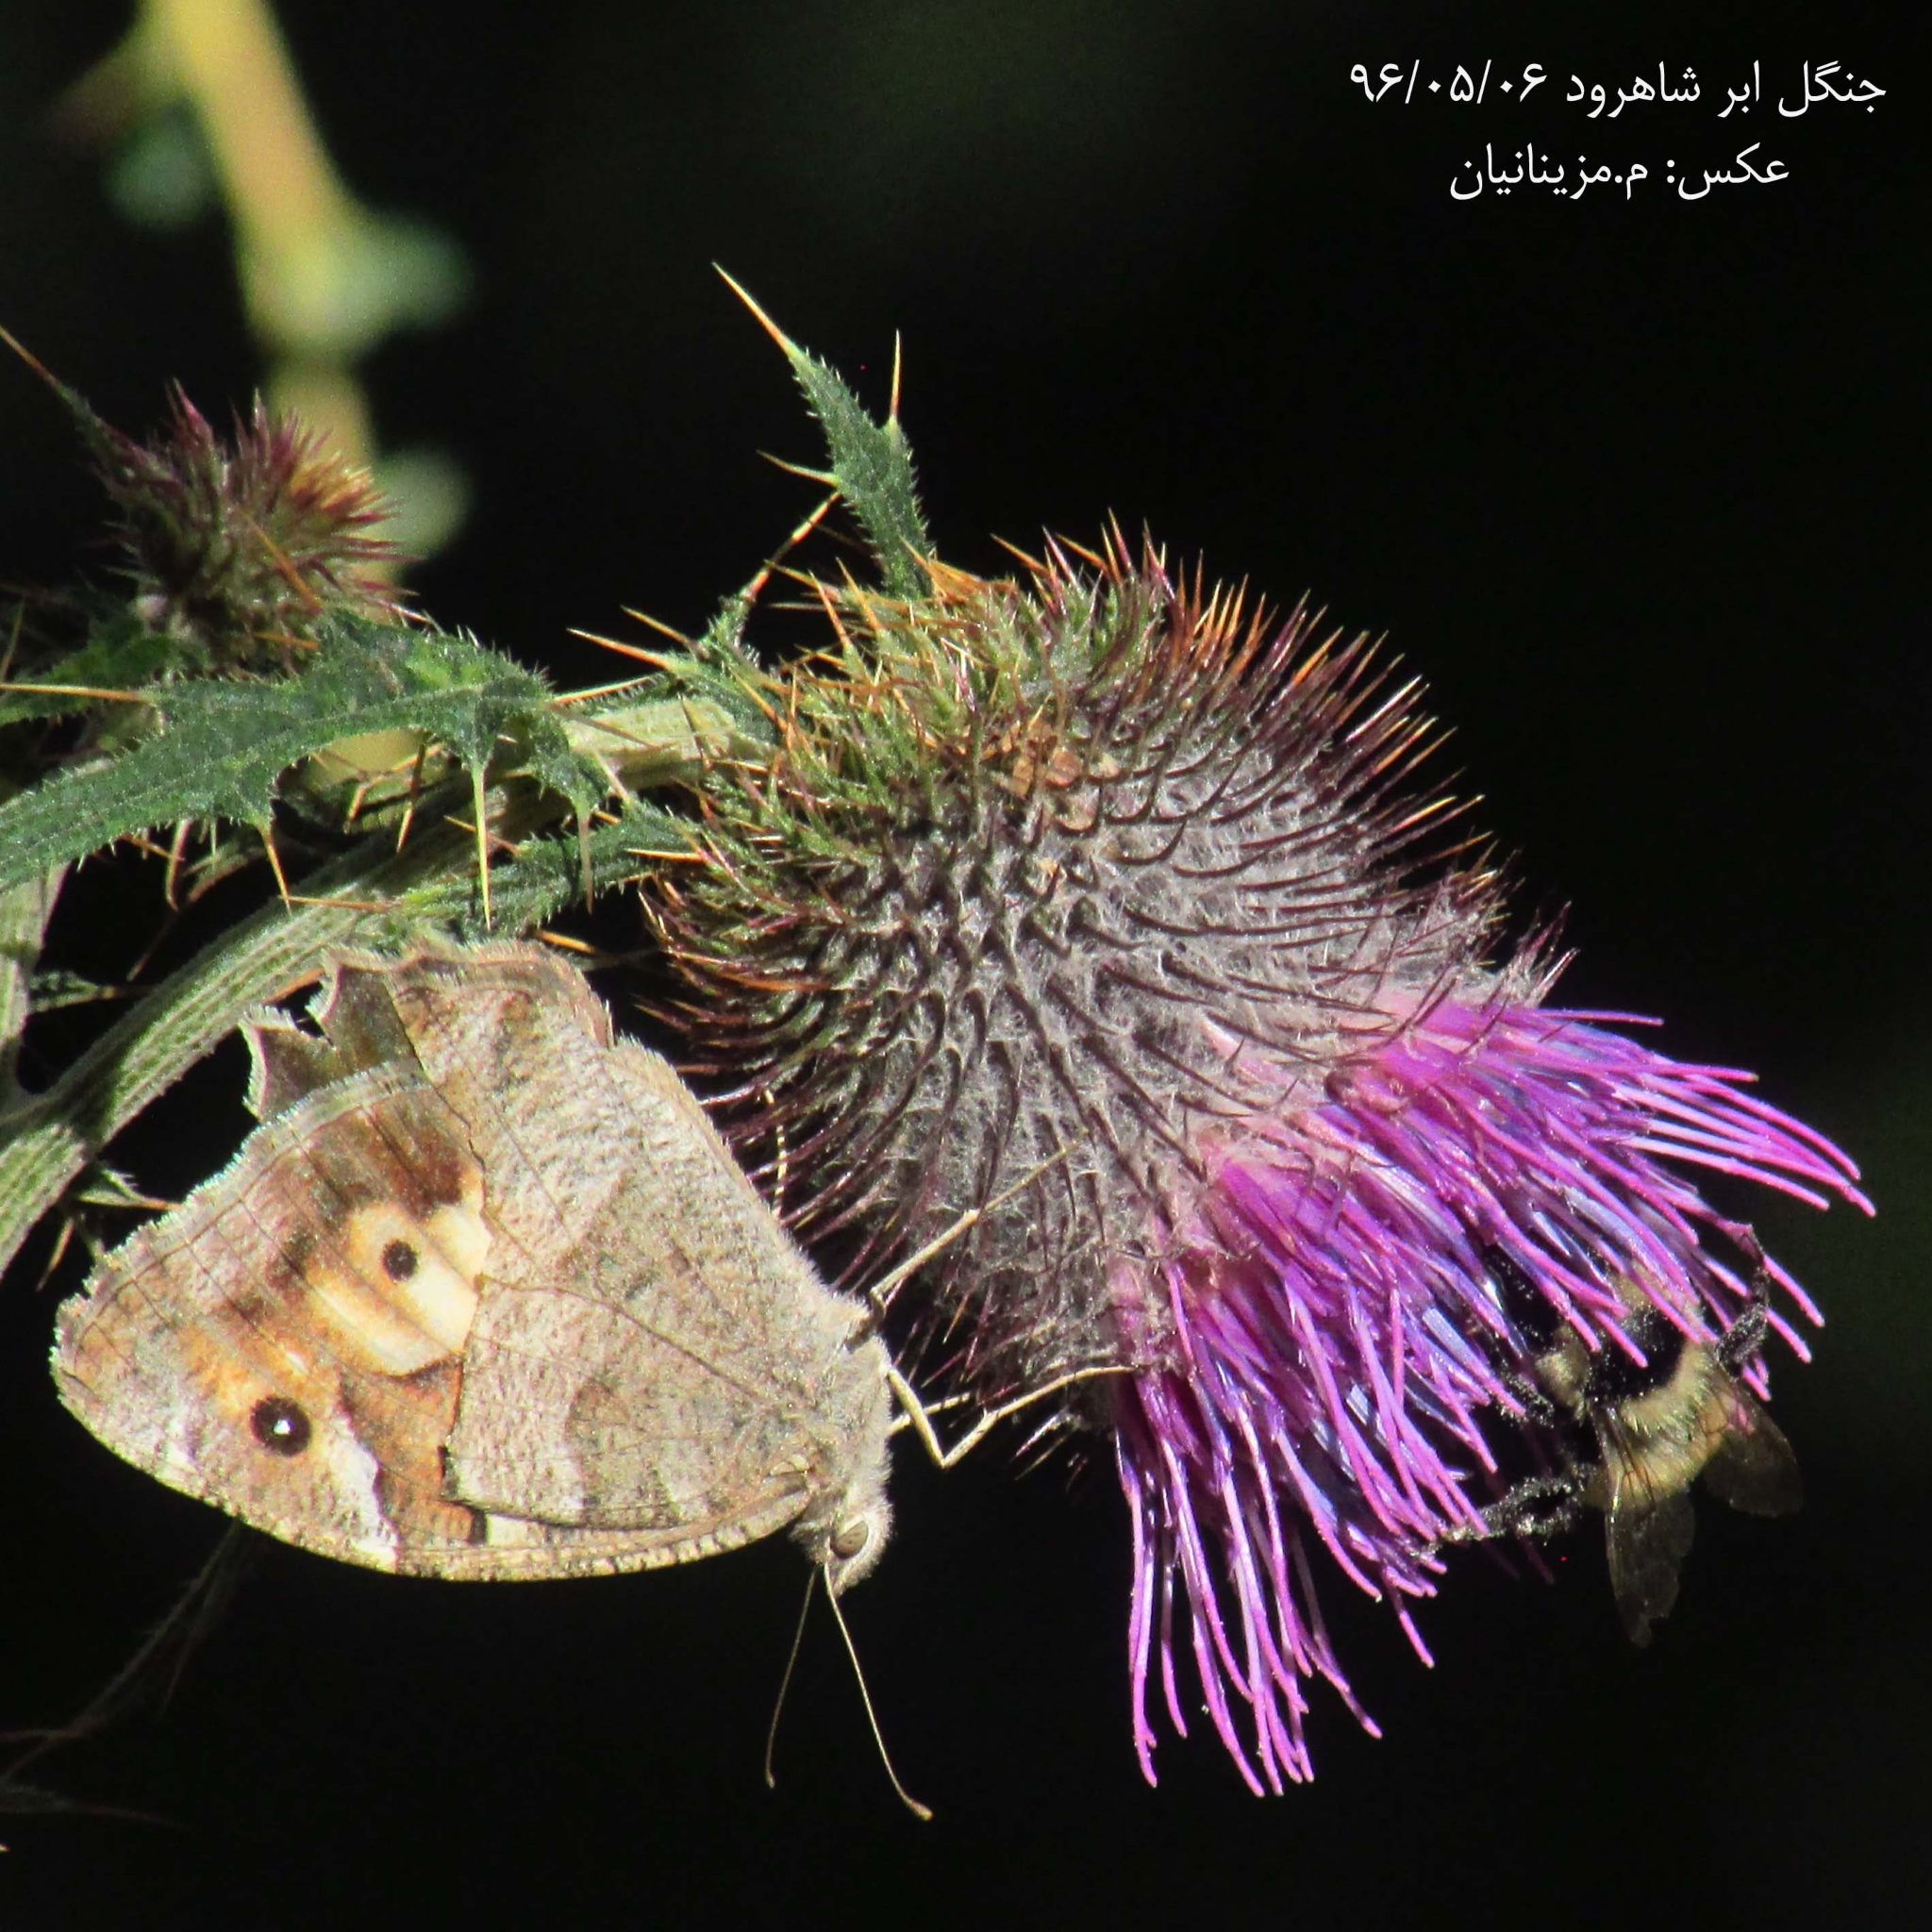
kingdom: Animalia
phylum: Arthropoda
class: Insecta
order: Lepidoptera
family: Nymphalidae
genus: Satyrus
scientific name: Satyrus briseis
